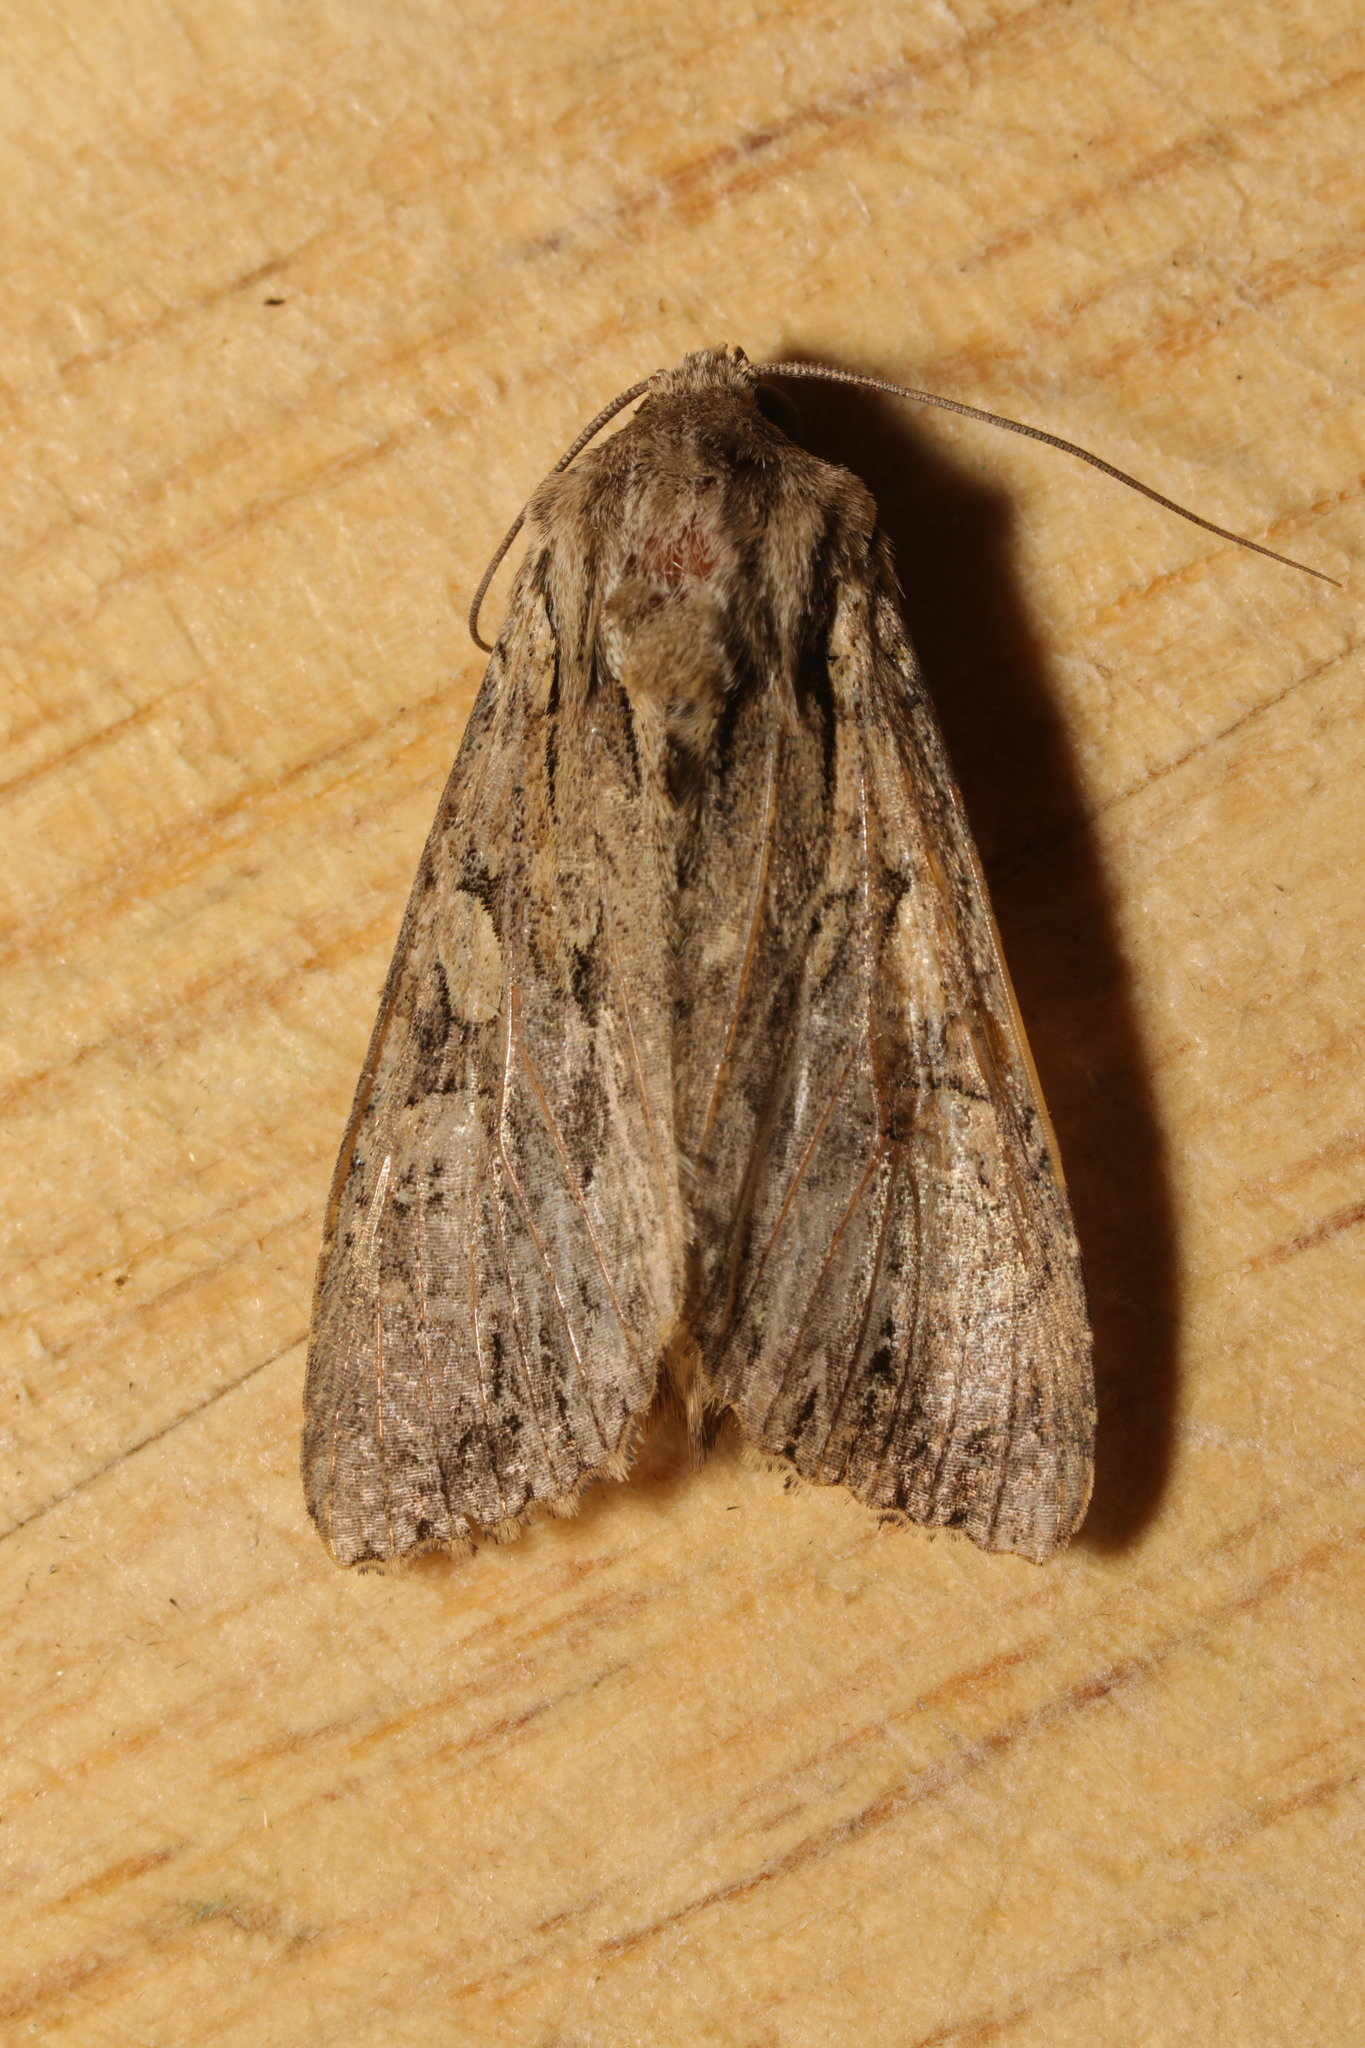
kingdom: Animalia
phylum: Arthropoda
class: Insecta
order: Lepidoptera
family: Noctuidae
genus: Apamea
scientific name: Apamea monoglypha
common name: Dark arches
